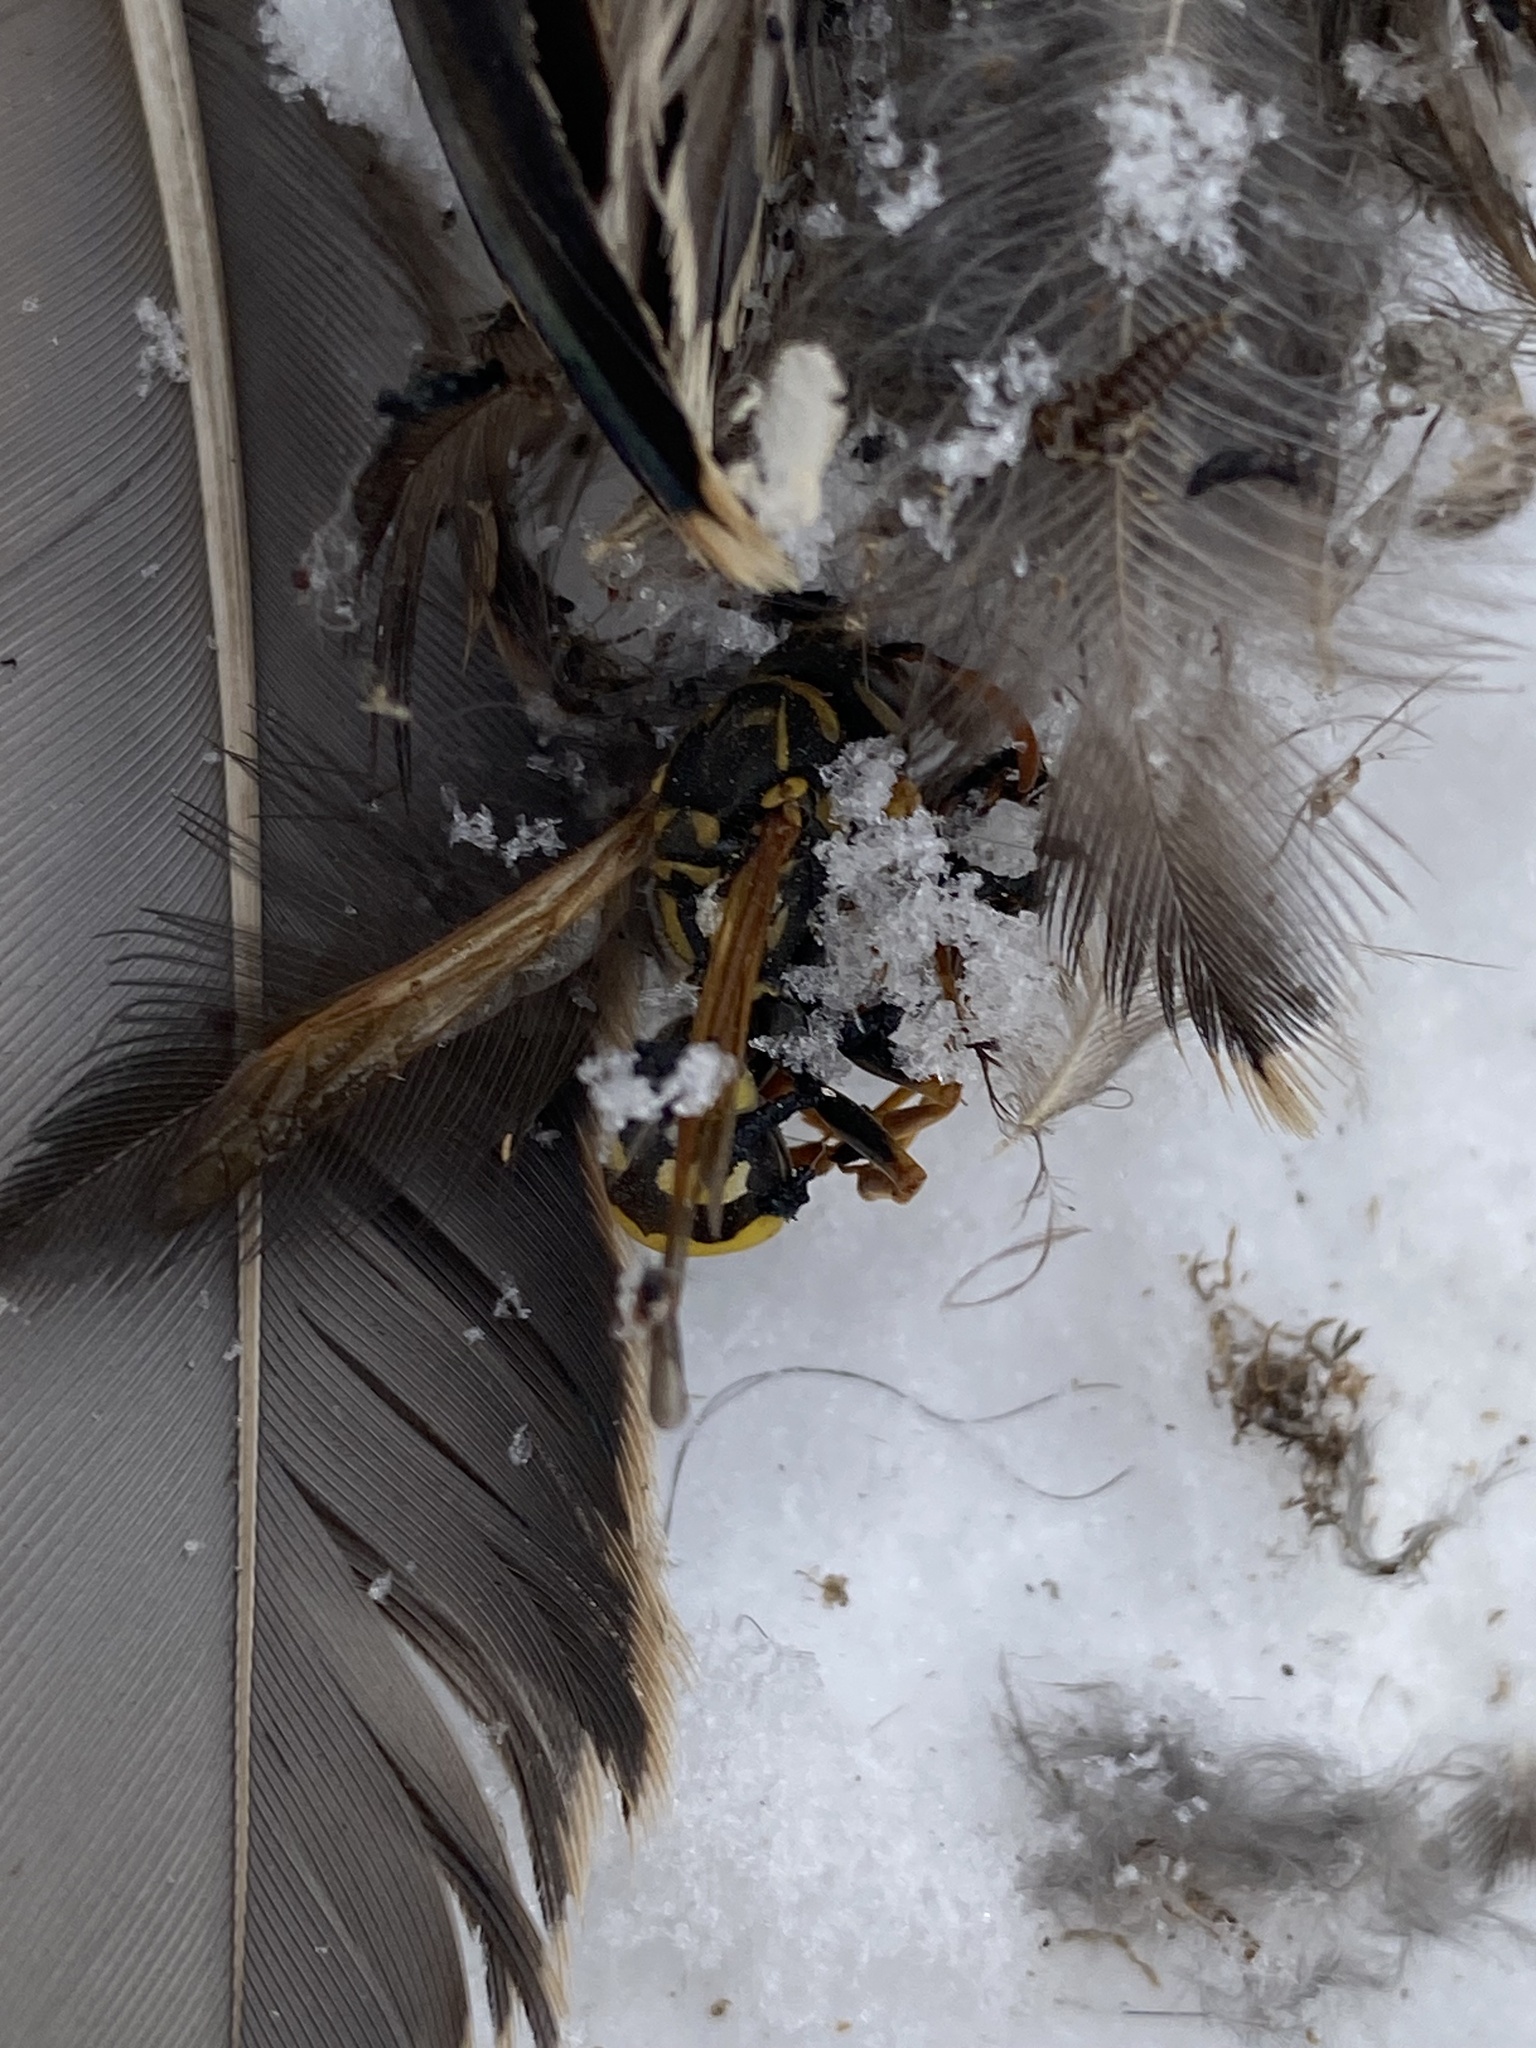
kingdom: Animalia
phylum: Arthropoda
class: Insecta
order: Hymenoptera
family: Eumenidae
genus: Polistes
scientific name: Polistes dominula
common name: Paper wasp
